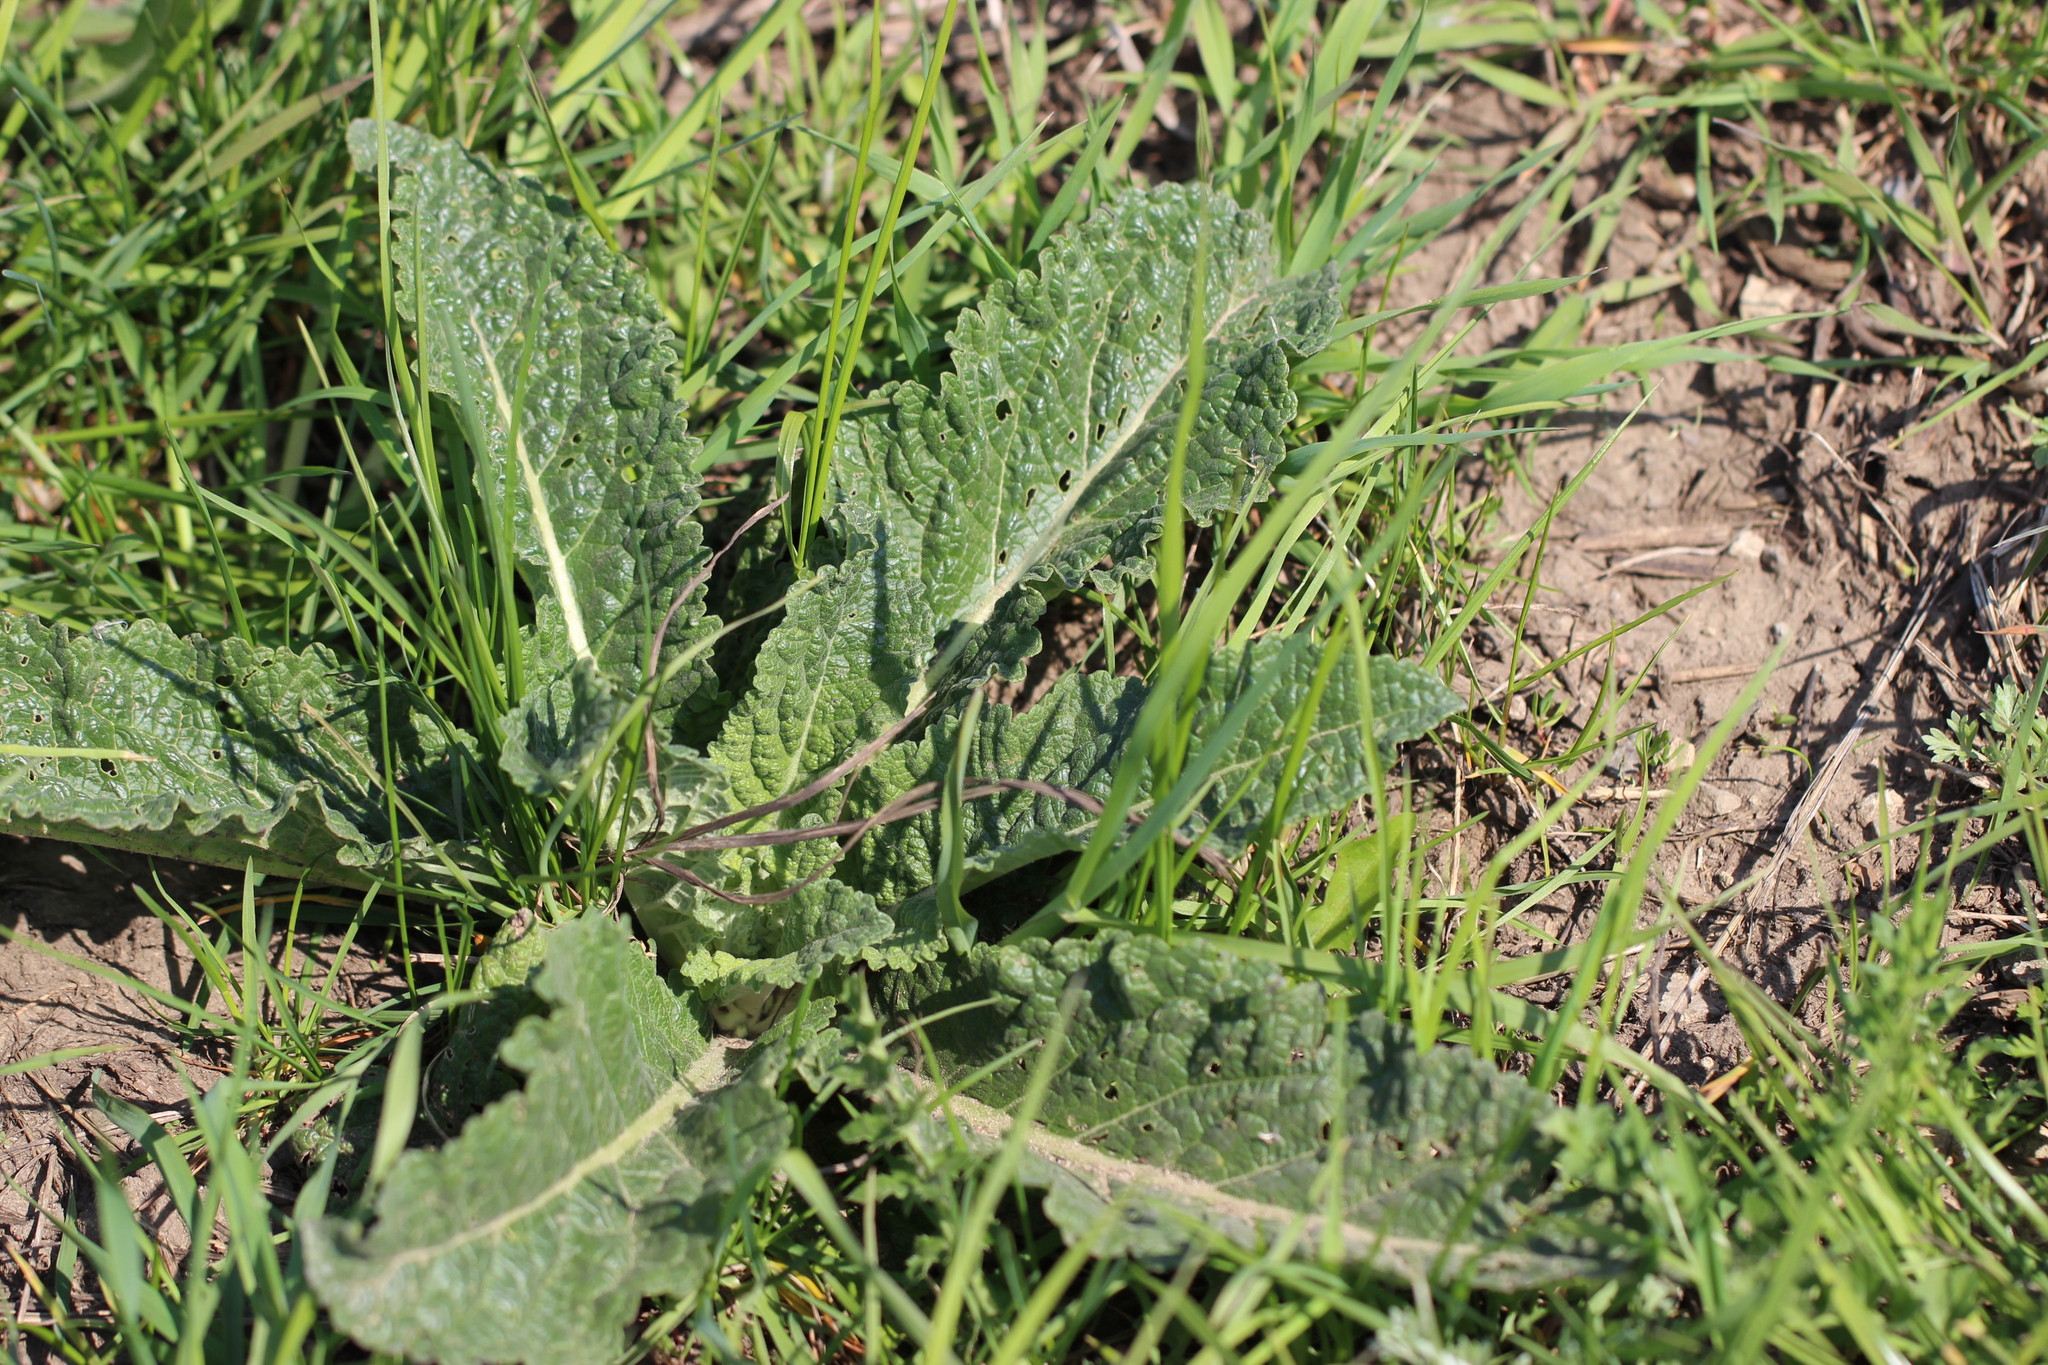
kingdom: Plantae
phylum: Tracheophyta
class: Magnoliopsida
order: Lamiales
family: Scrophulariaceae
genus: Verbascum
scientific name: Verbascum lychnitis
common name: White mullein
